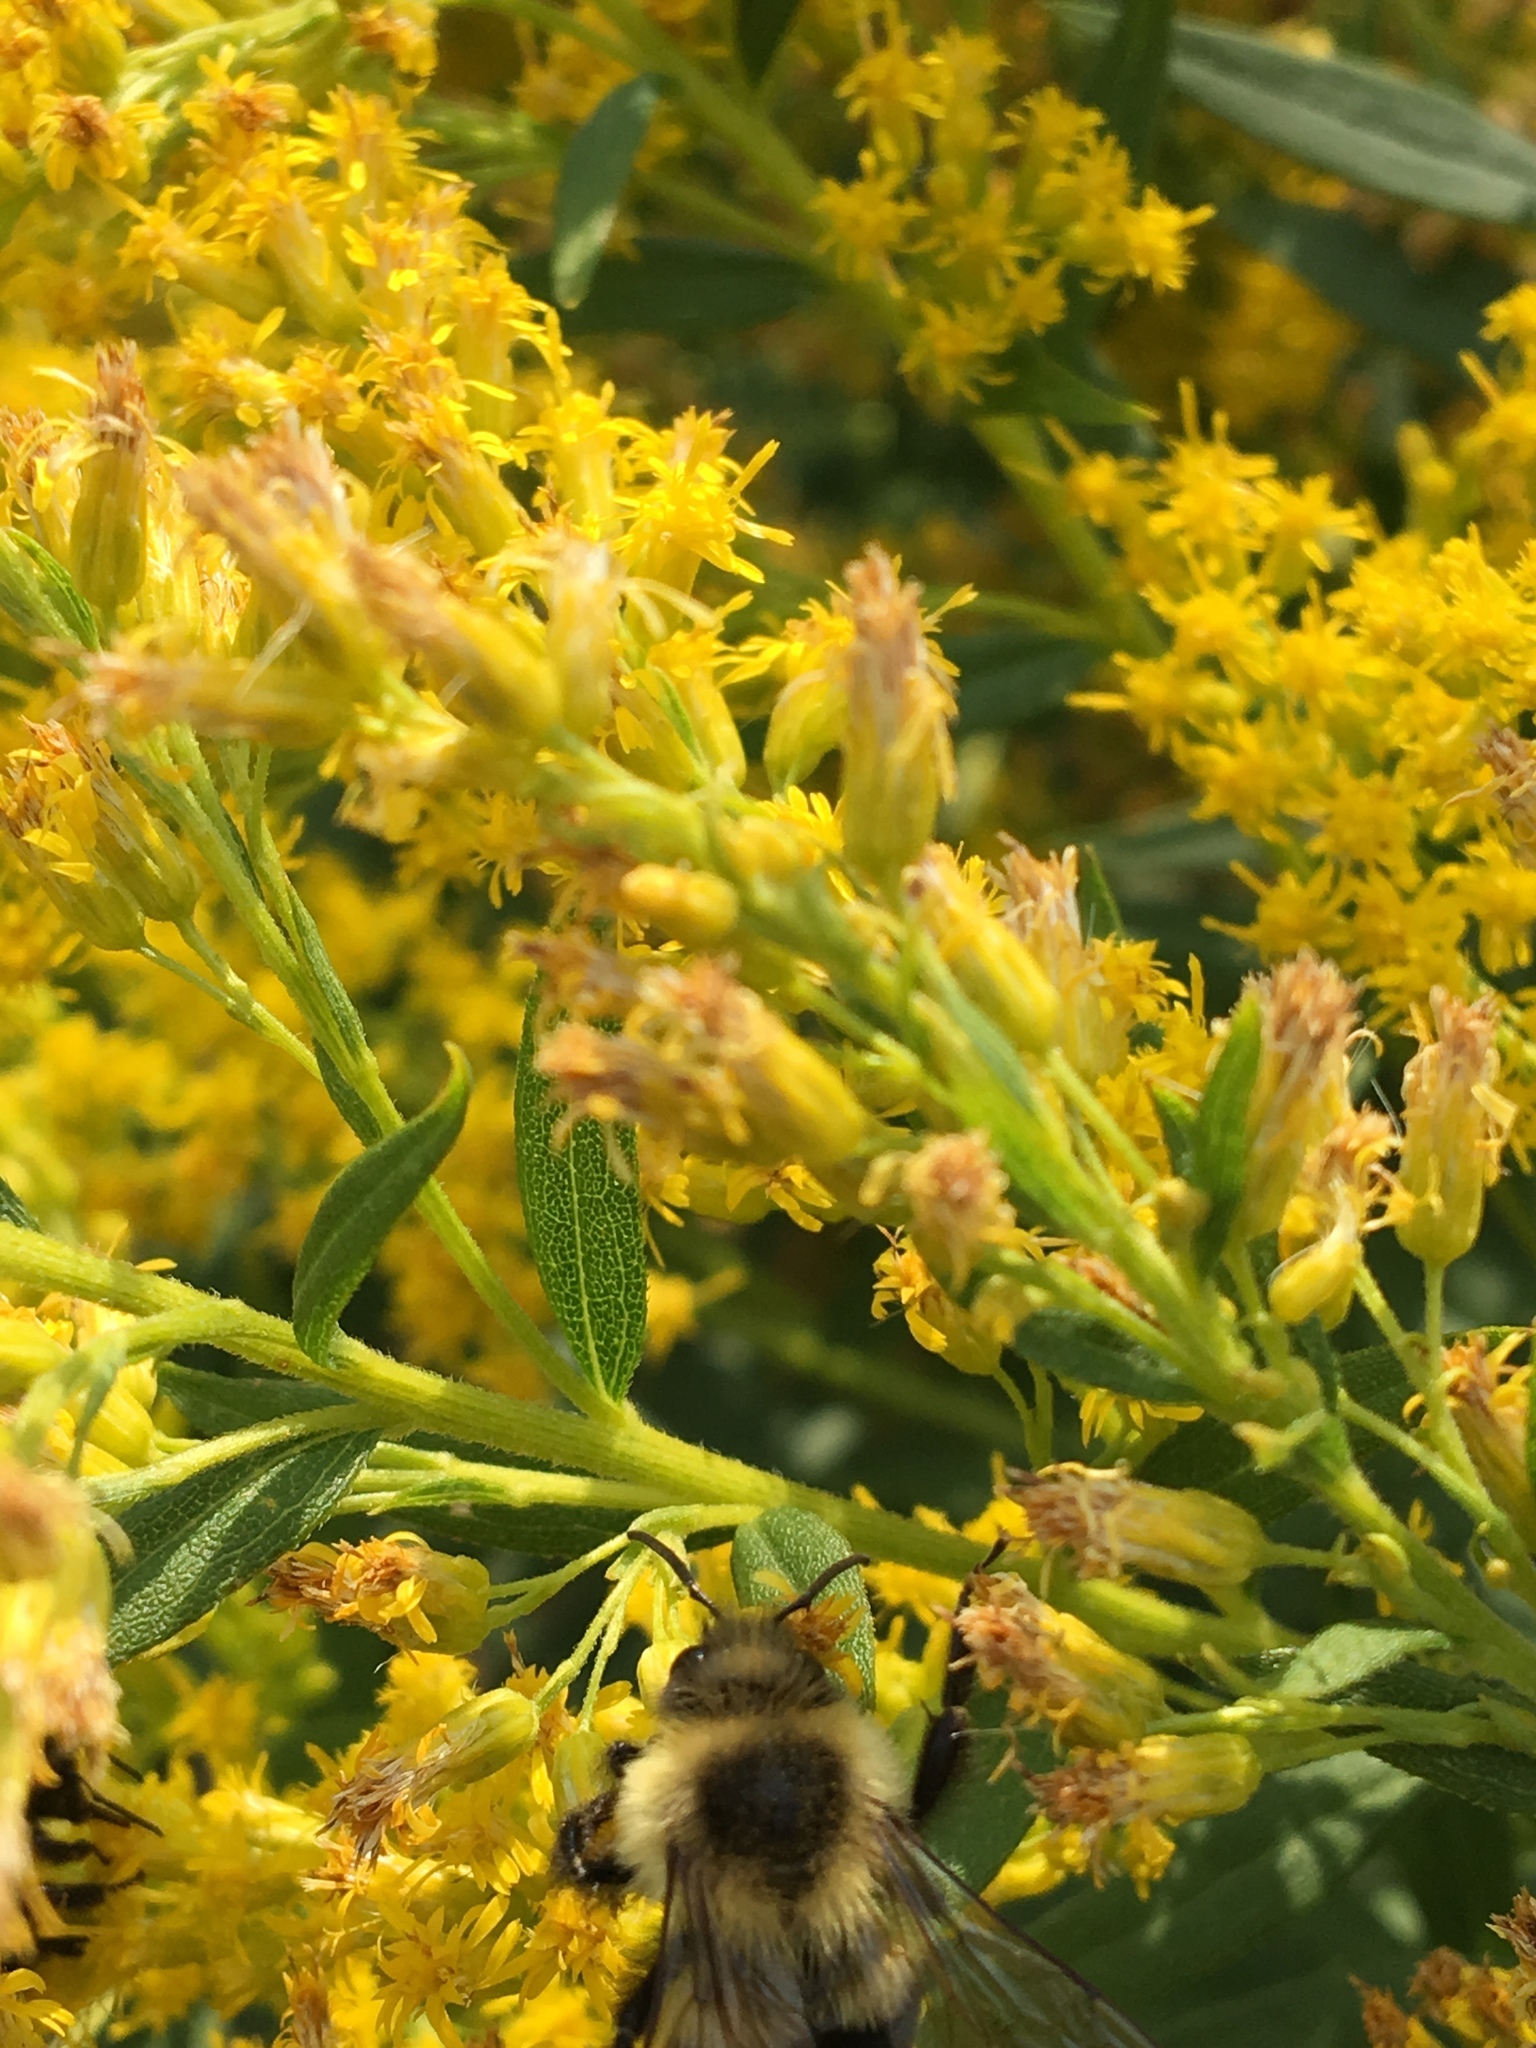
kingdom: Animalia
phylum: Arthropoda
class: Insecta
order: Hymenoptera
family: Apidae
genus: Bombus
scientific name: Bombus impatiens
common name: Common eastern bumble bee
